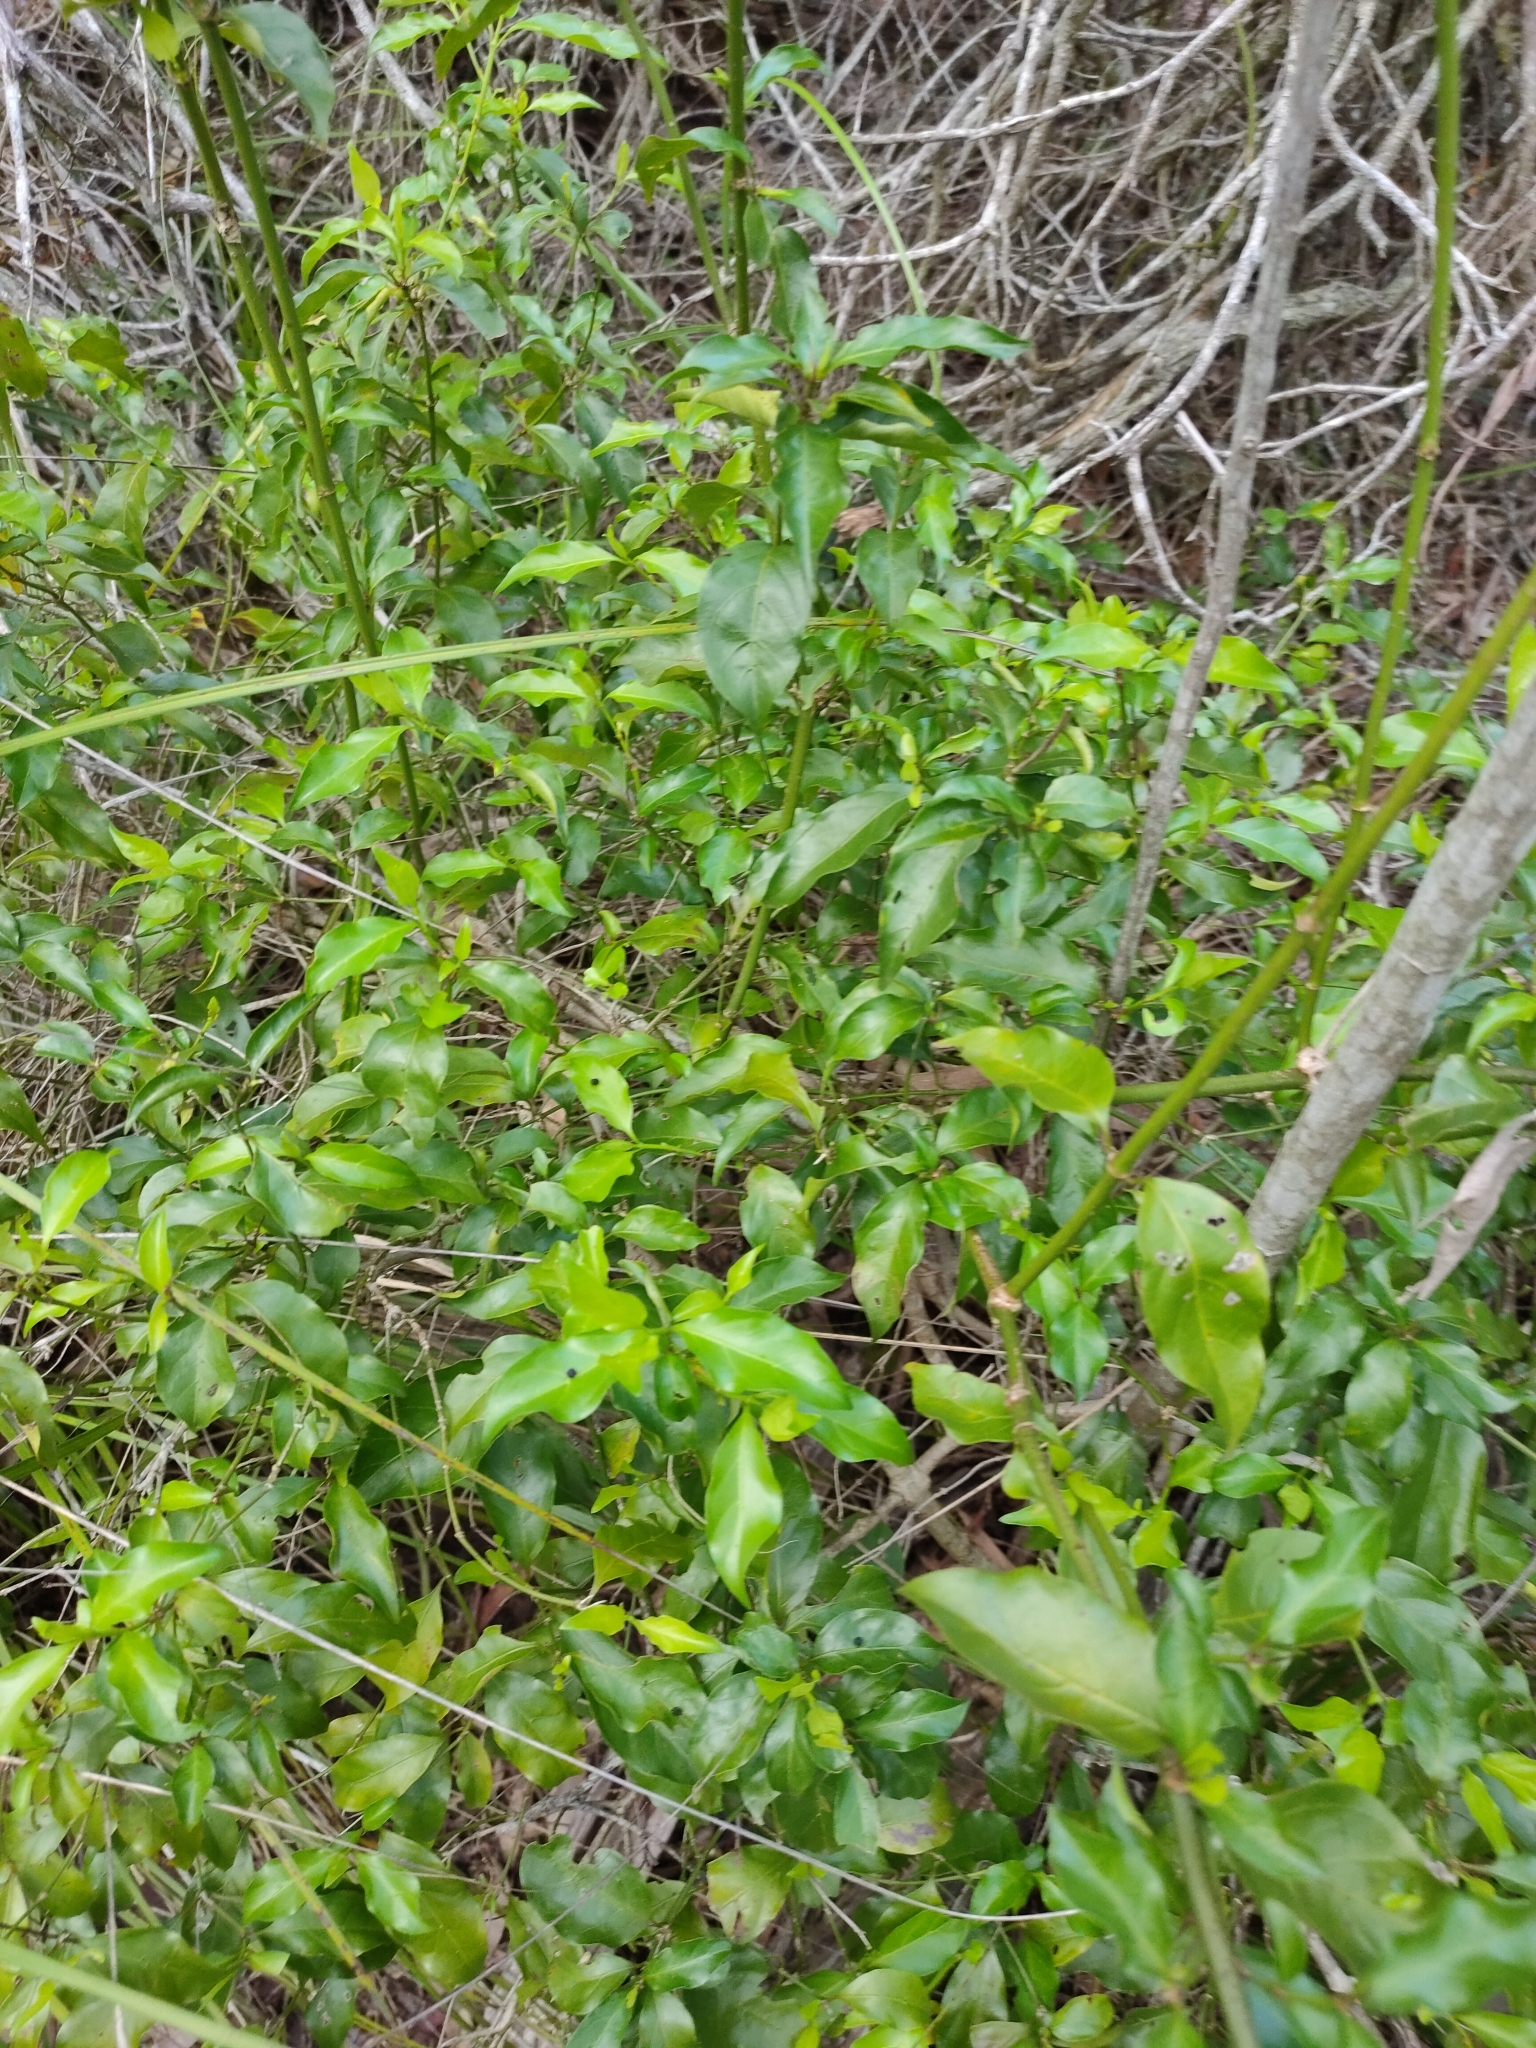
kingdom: Plantae
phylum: Tracheophyta
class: Magnoliopsida
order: Gentianales
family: Rubiaceae
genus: Gynochthodes
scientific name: Gynochthodes jasminoides
